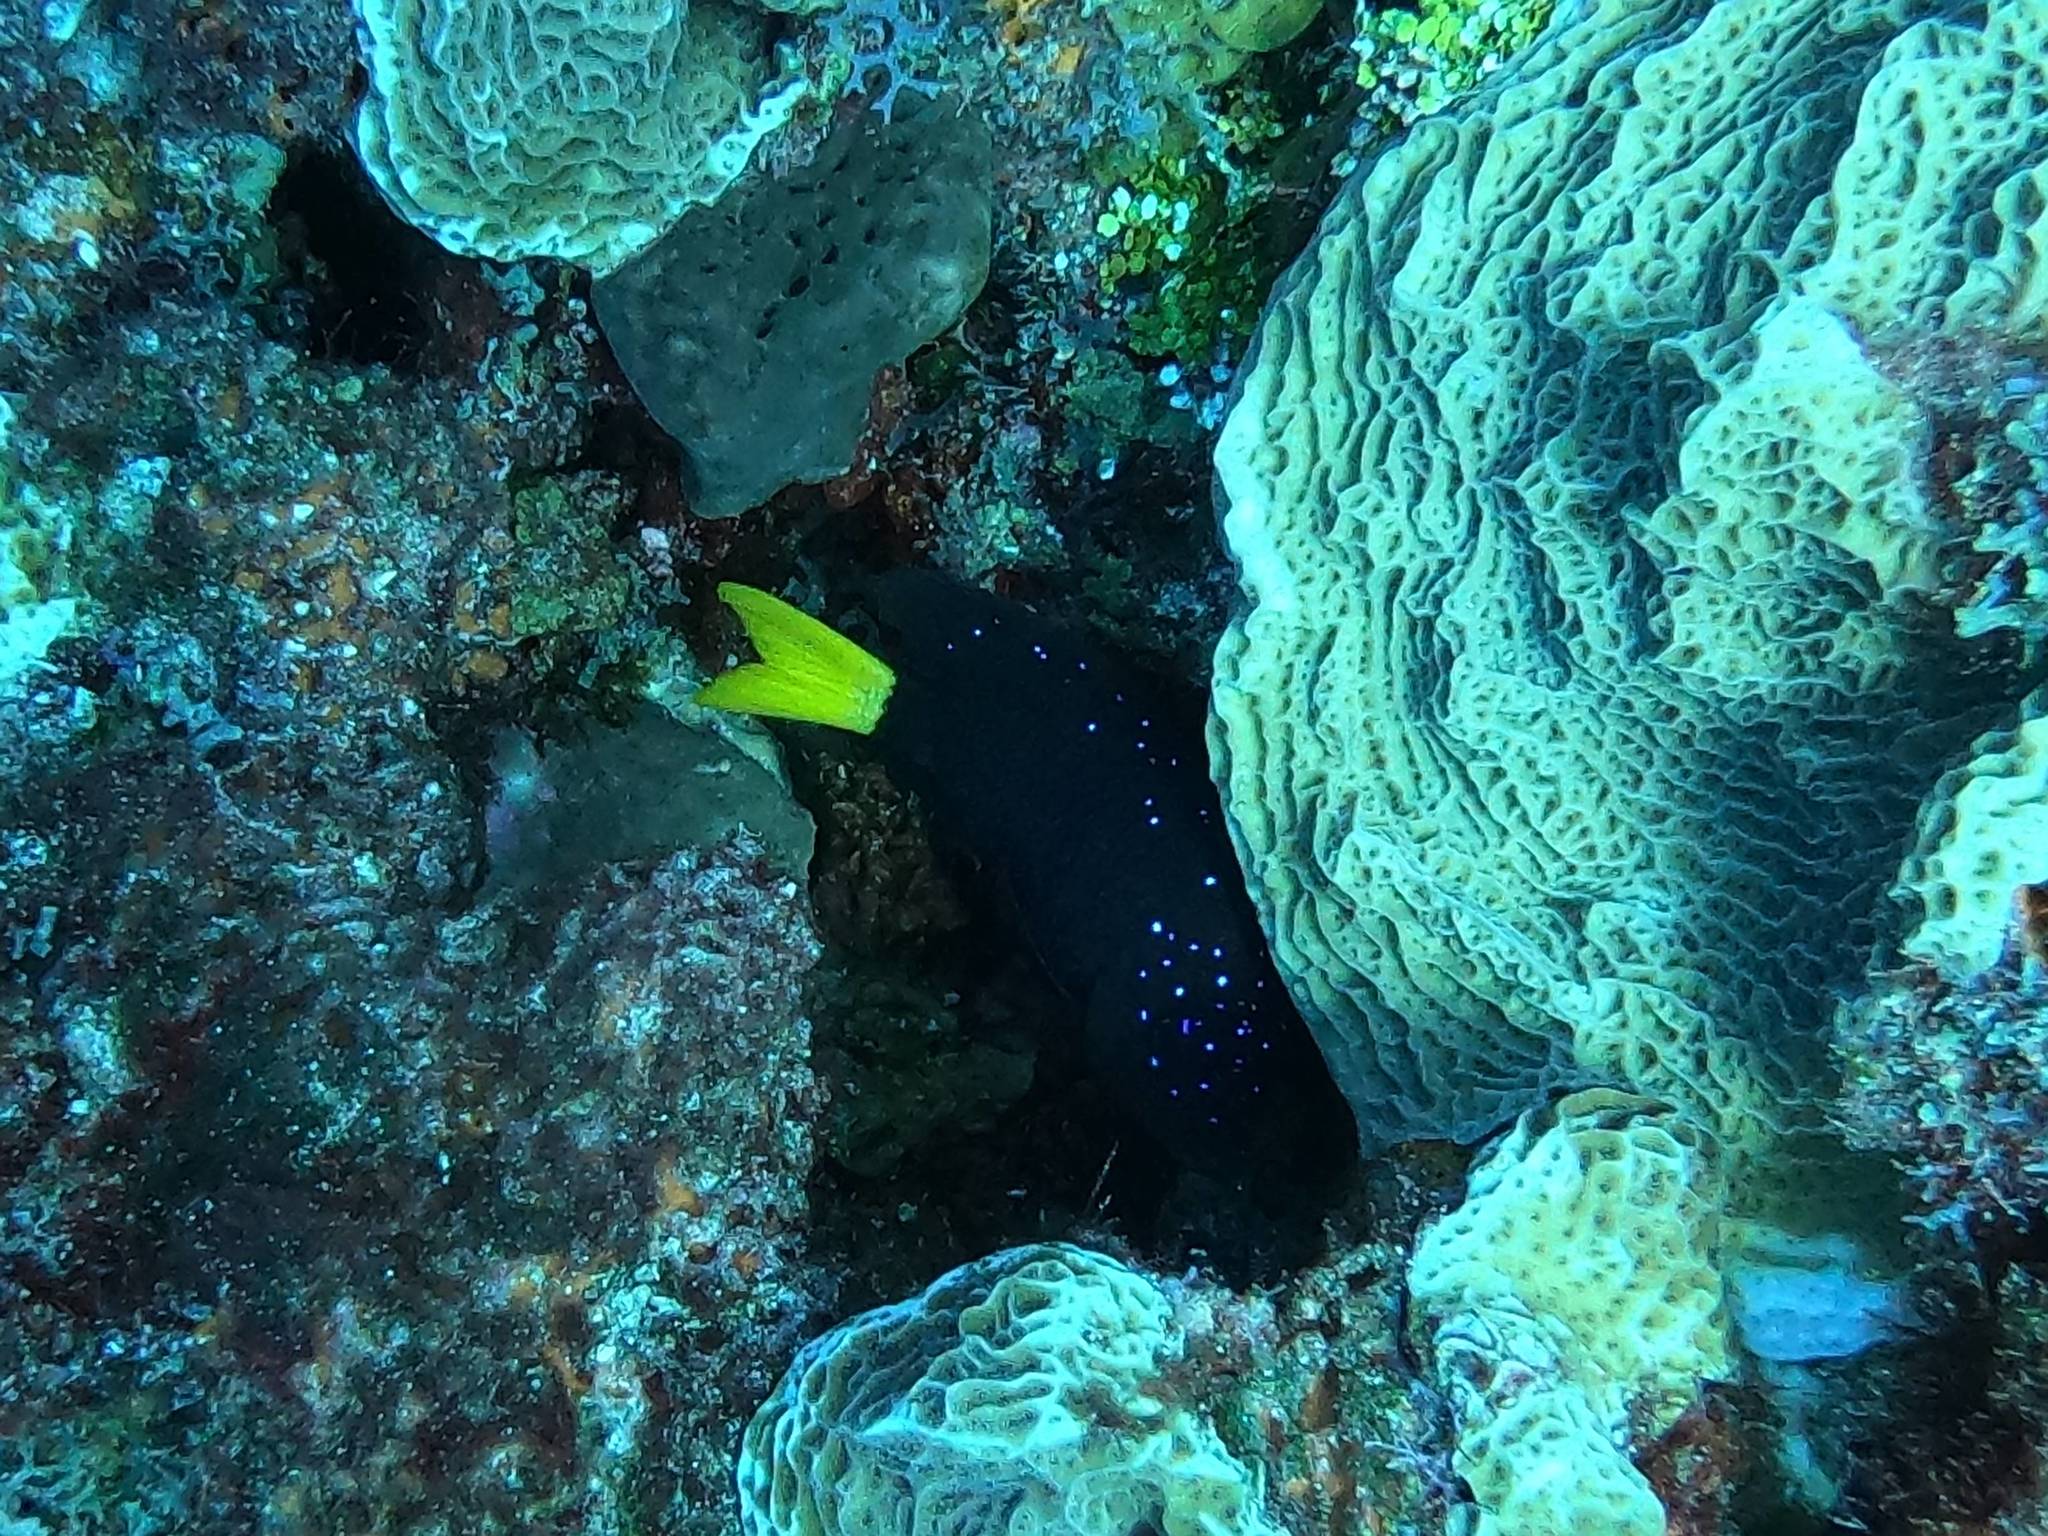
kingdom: Animalia
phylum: Chordata
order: Perciformes
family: Pomacentridae
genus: Microspathodon
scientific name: Microspathodon chrysurus
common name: Yellowtail damselfish
